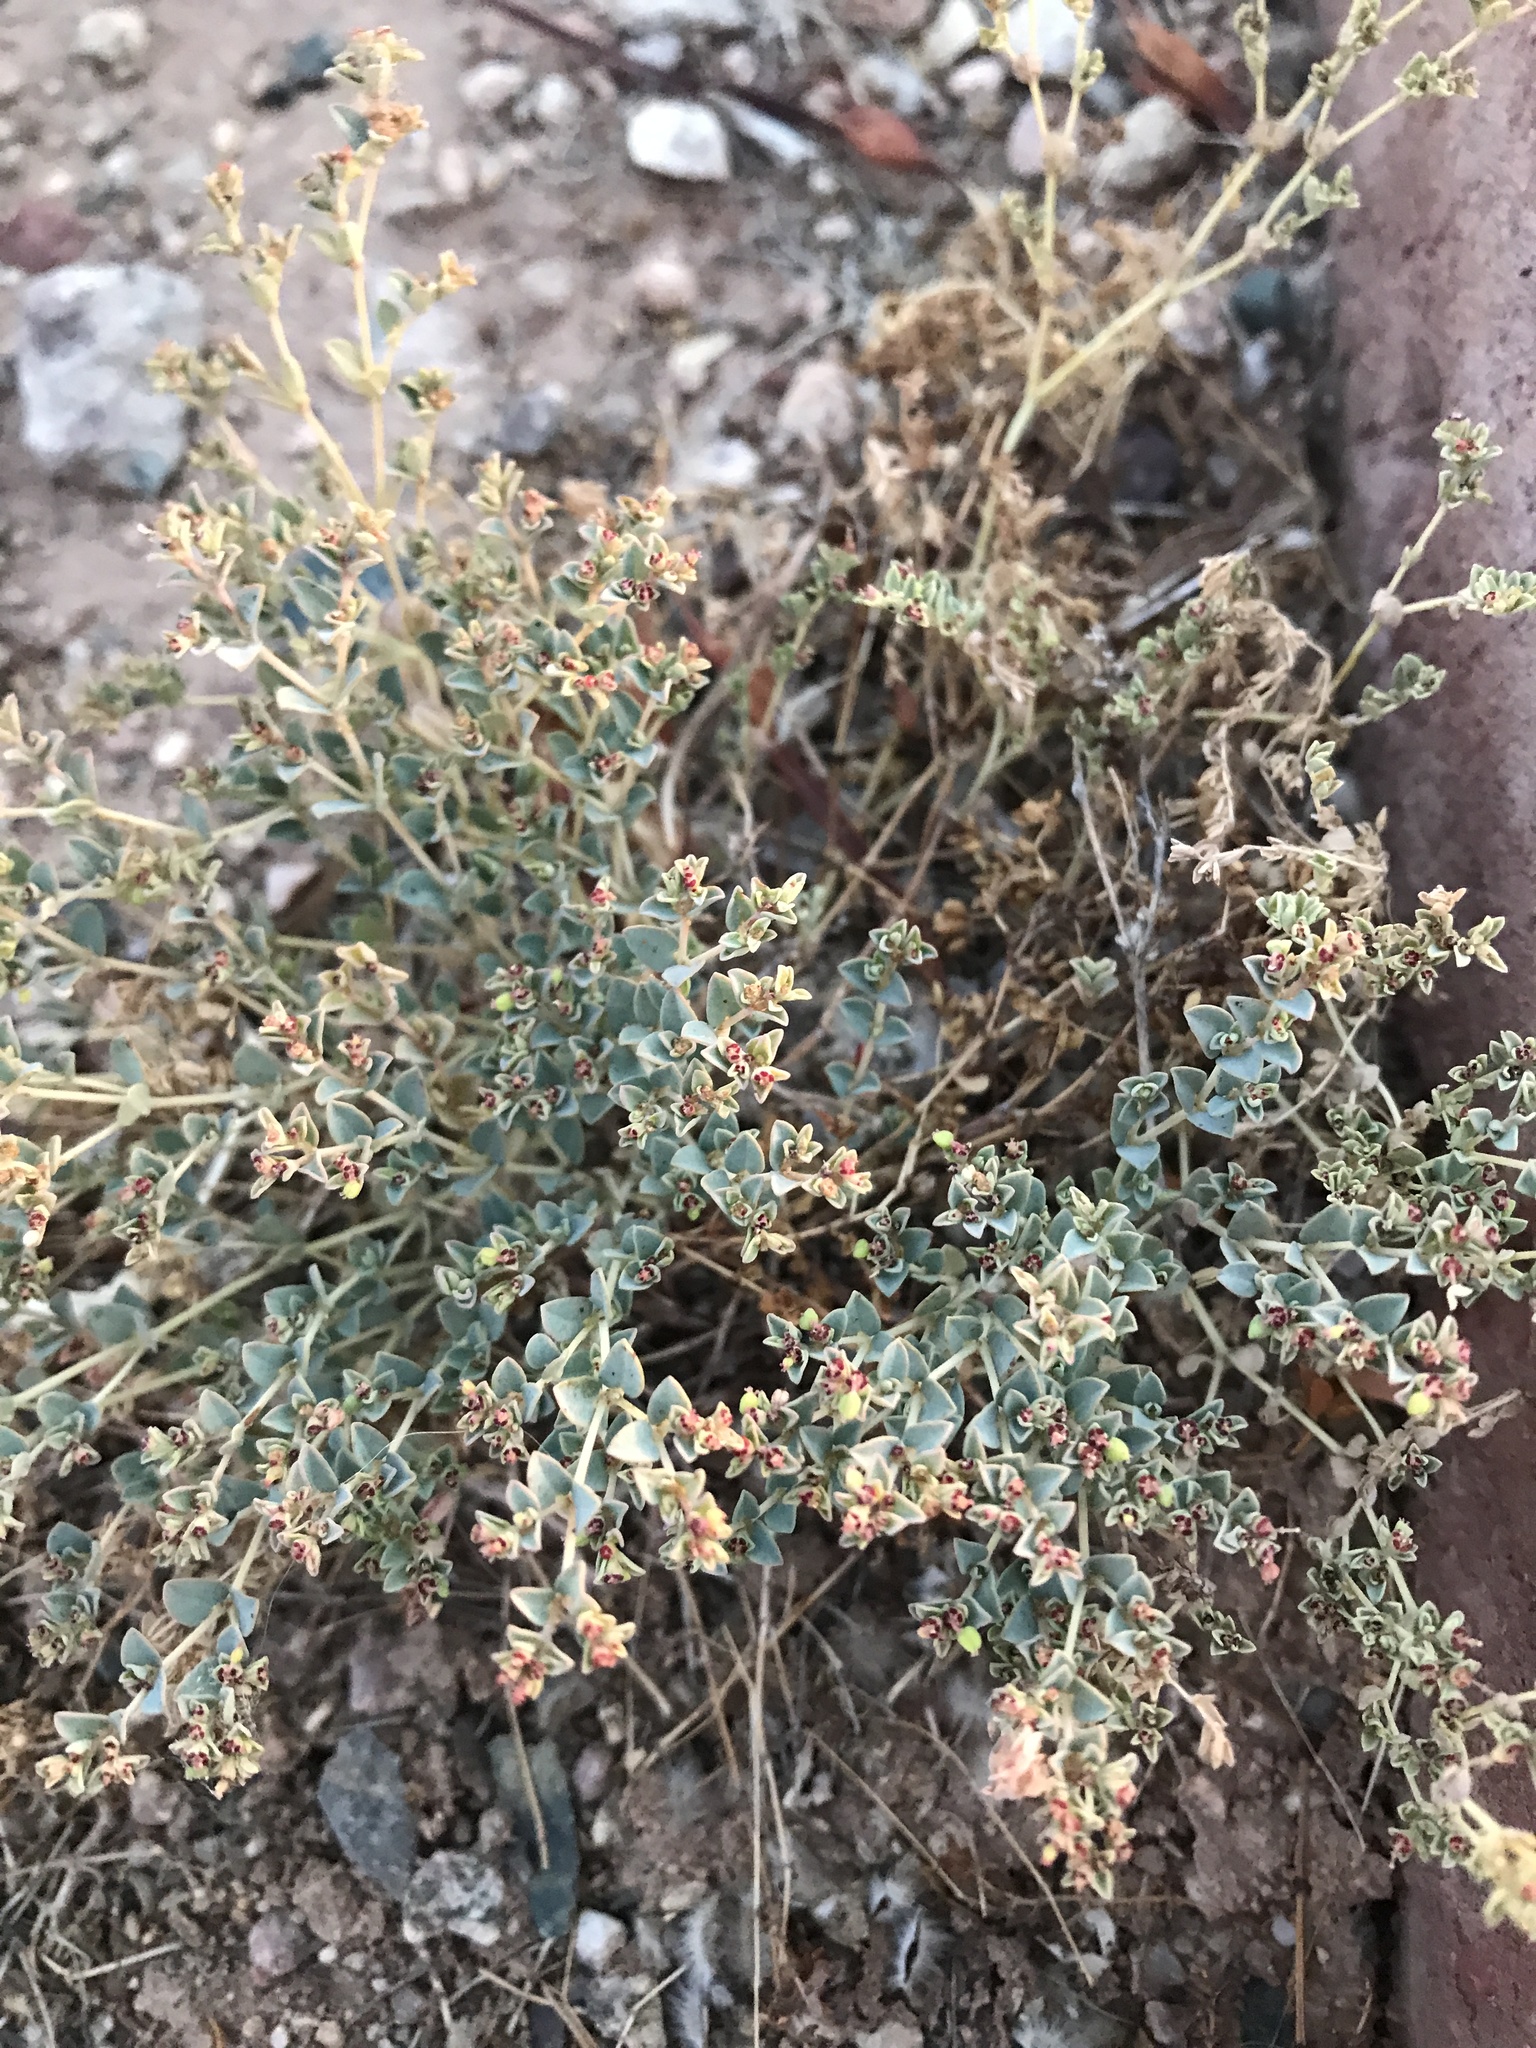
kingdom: Plantae
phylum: Tracheophyta
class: Magnoliopsida
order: Malpighiales
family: Euphorbiaceae
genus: Euphorbia
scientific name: Euphorbia polycarpa
